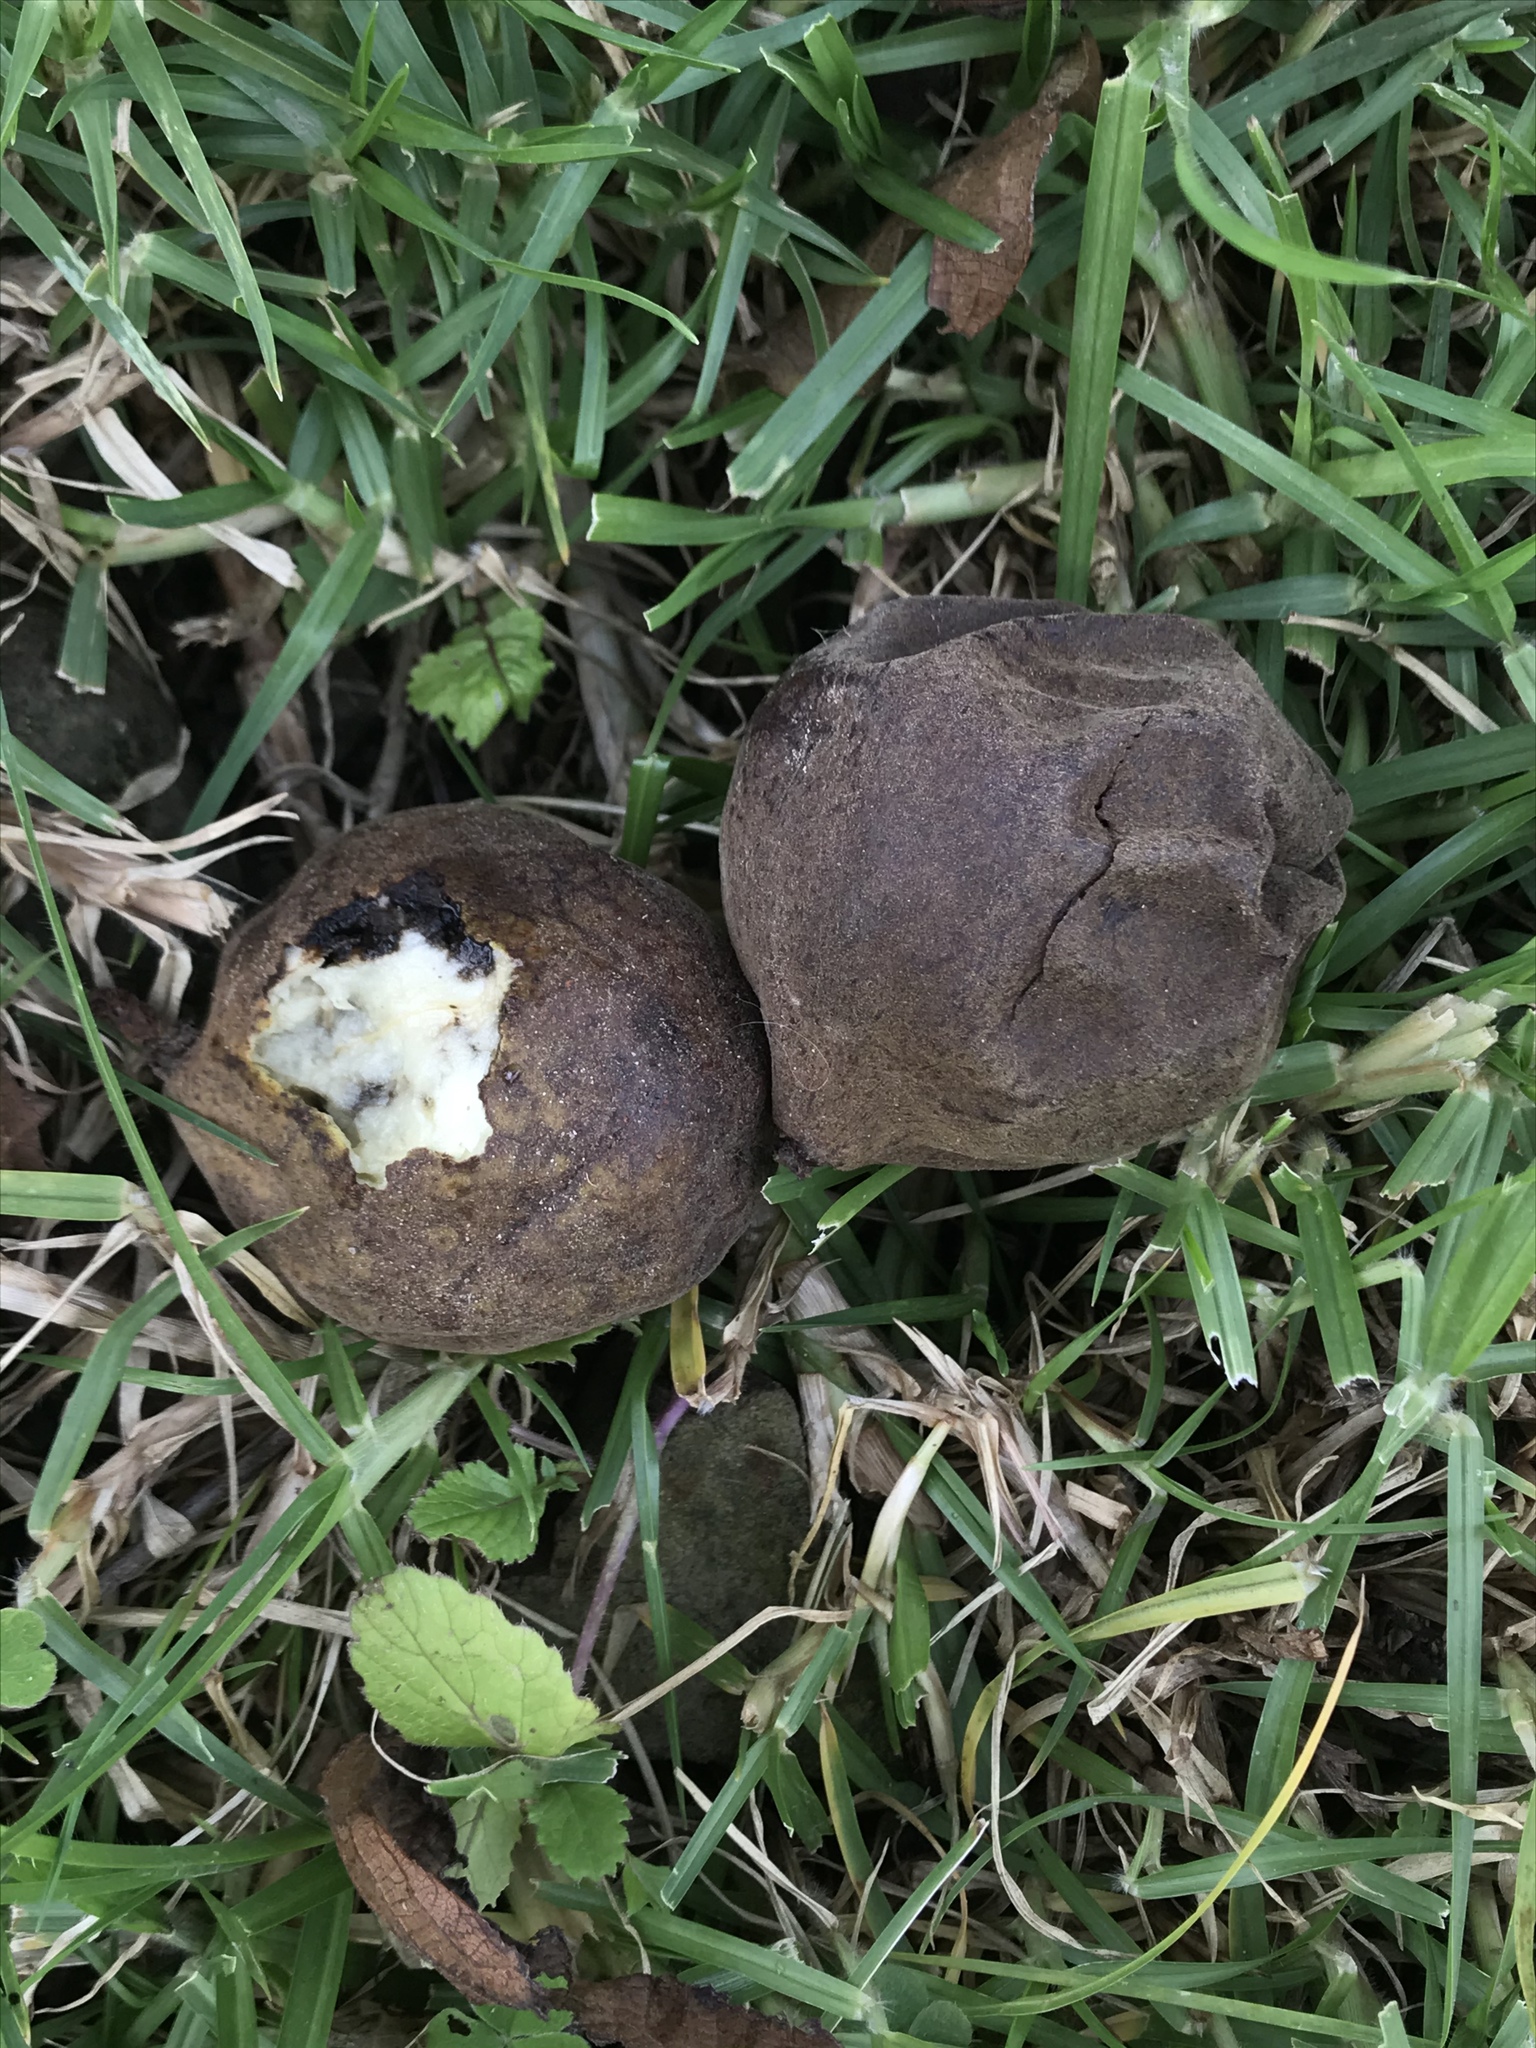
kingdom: Plantae
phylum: Tracheophyta
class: Magnoliopsida
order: Fagales
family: Juglandaceae
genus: Juglans
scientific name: Juglans neotropica
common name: Andean walnut
